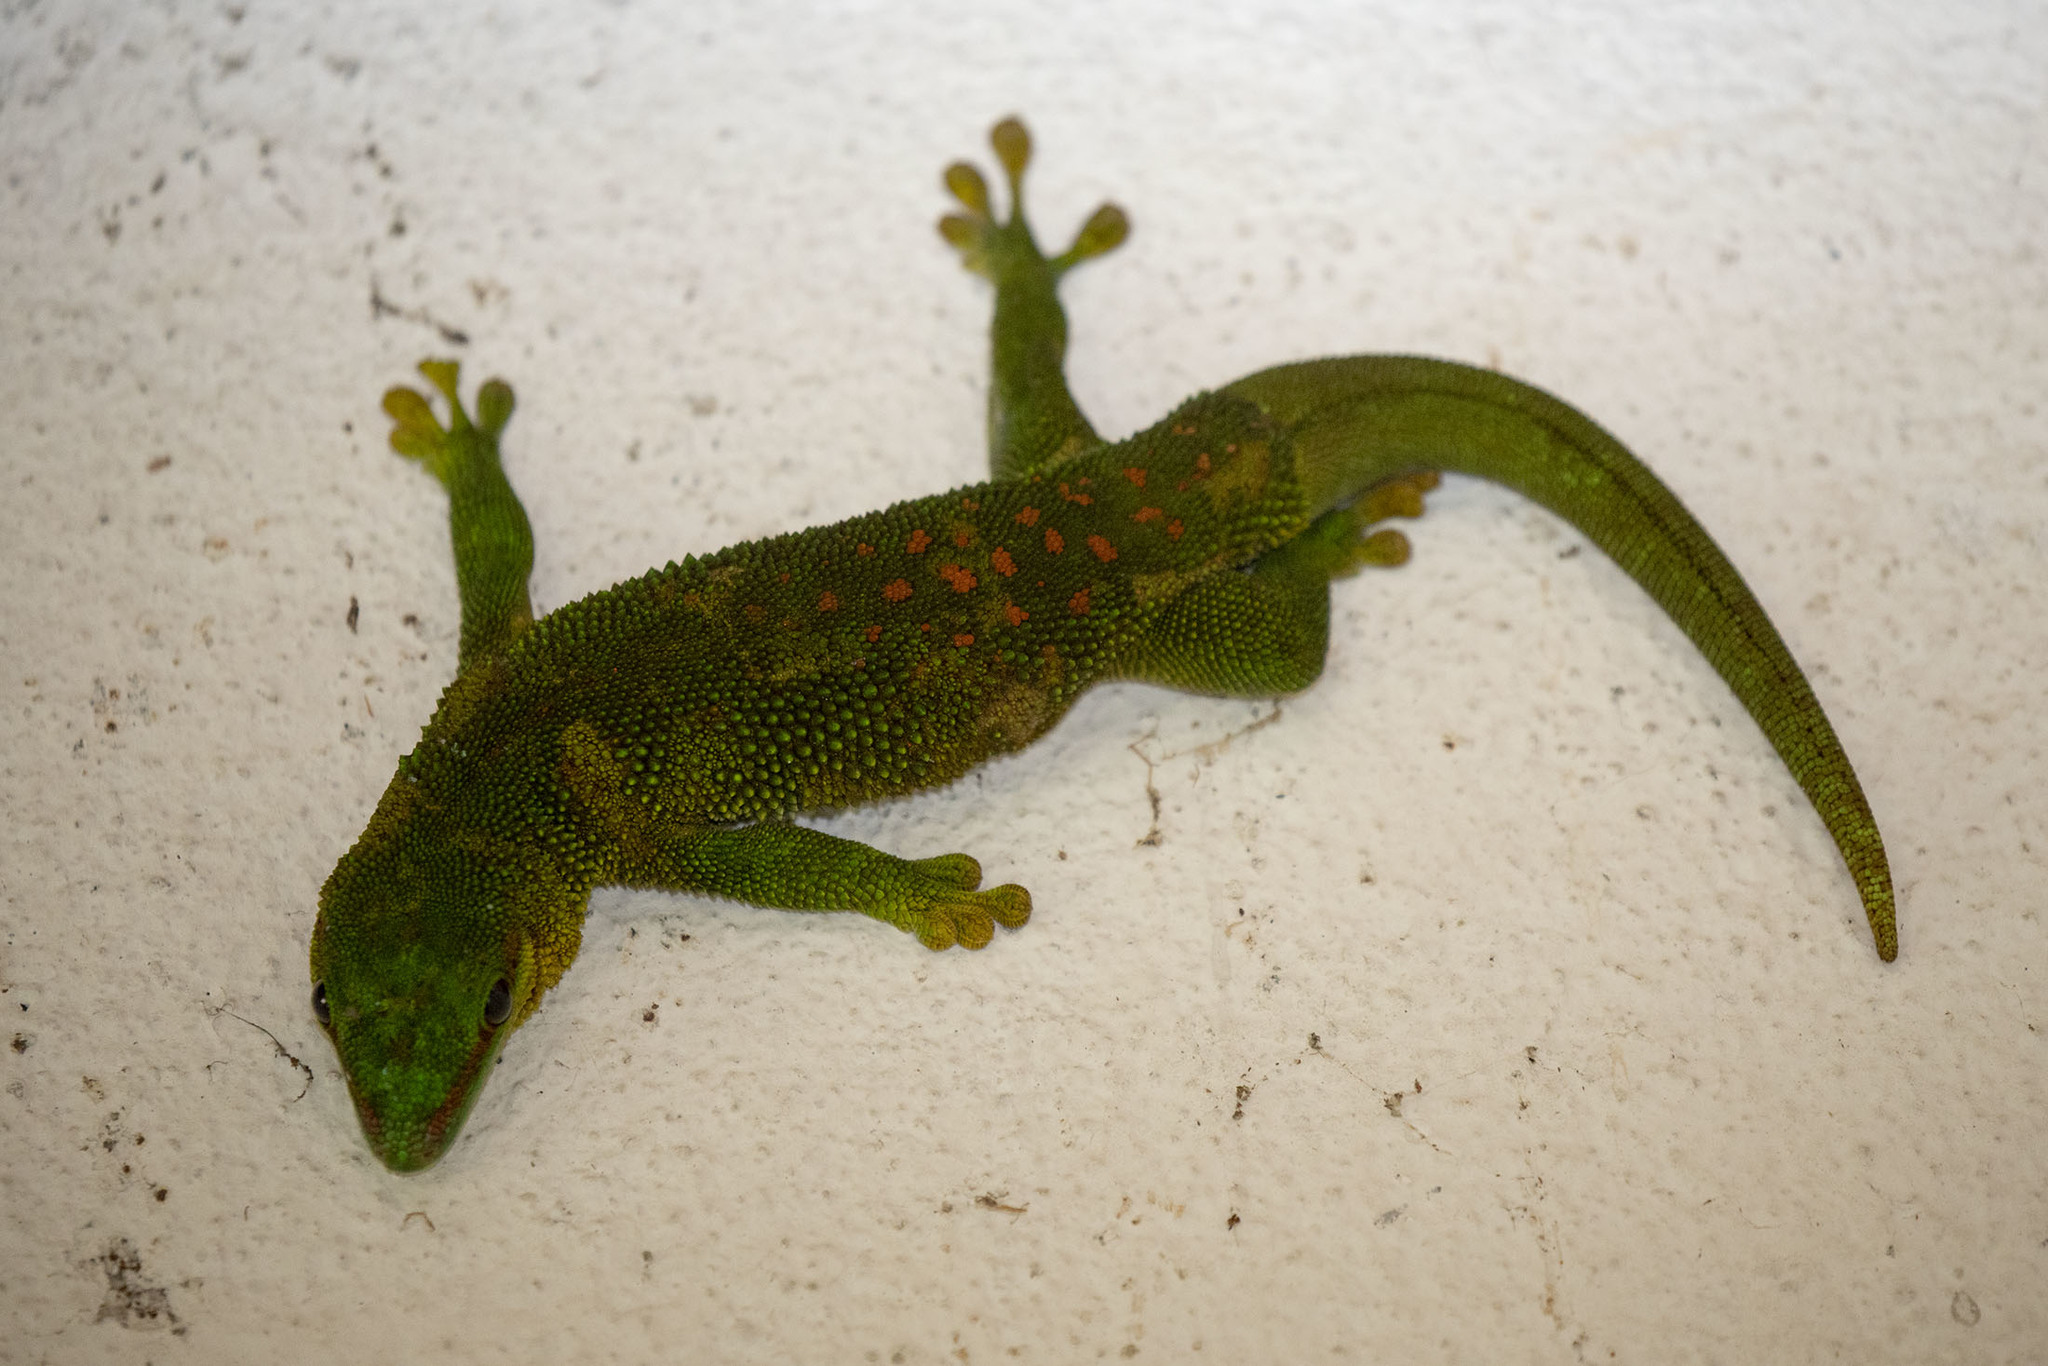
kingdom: Animalia
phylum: Chordata
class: Squamata
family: Gekkonidae
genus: Phelsuma
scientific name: Phelsuma madagascariensis
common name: Madagascar day gecko
